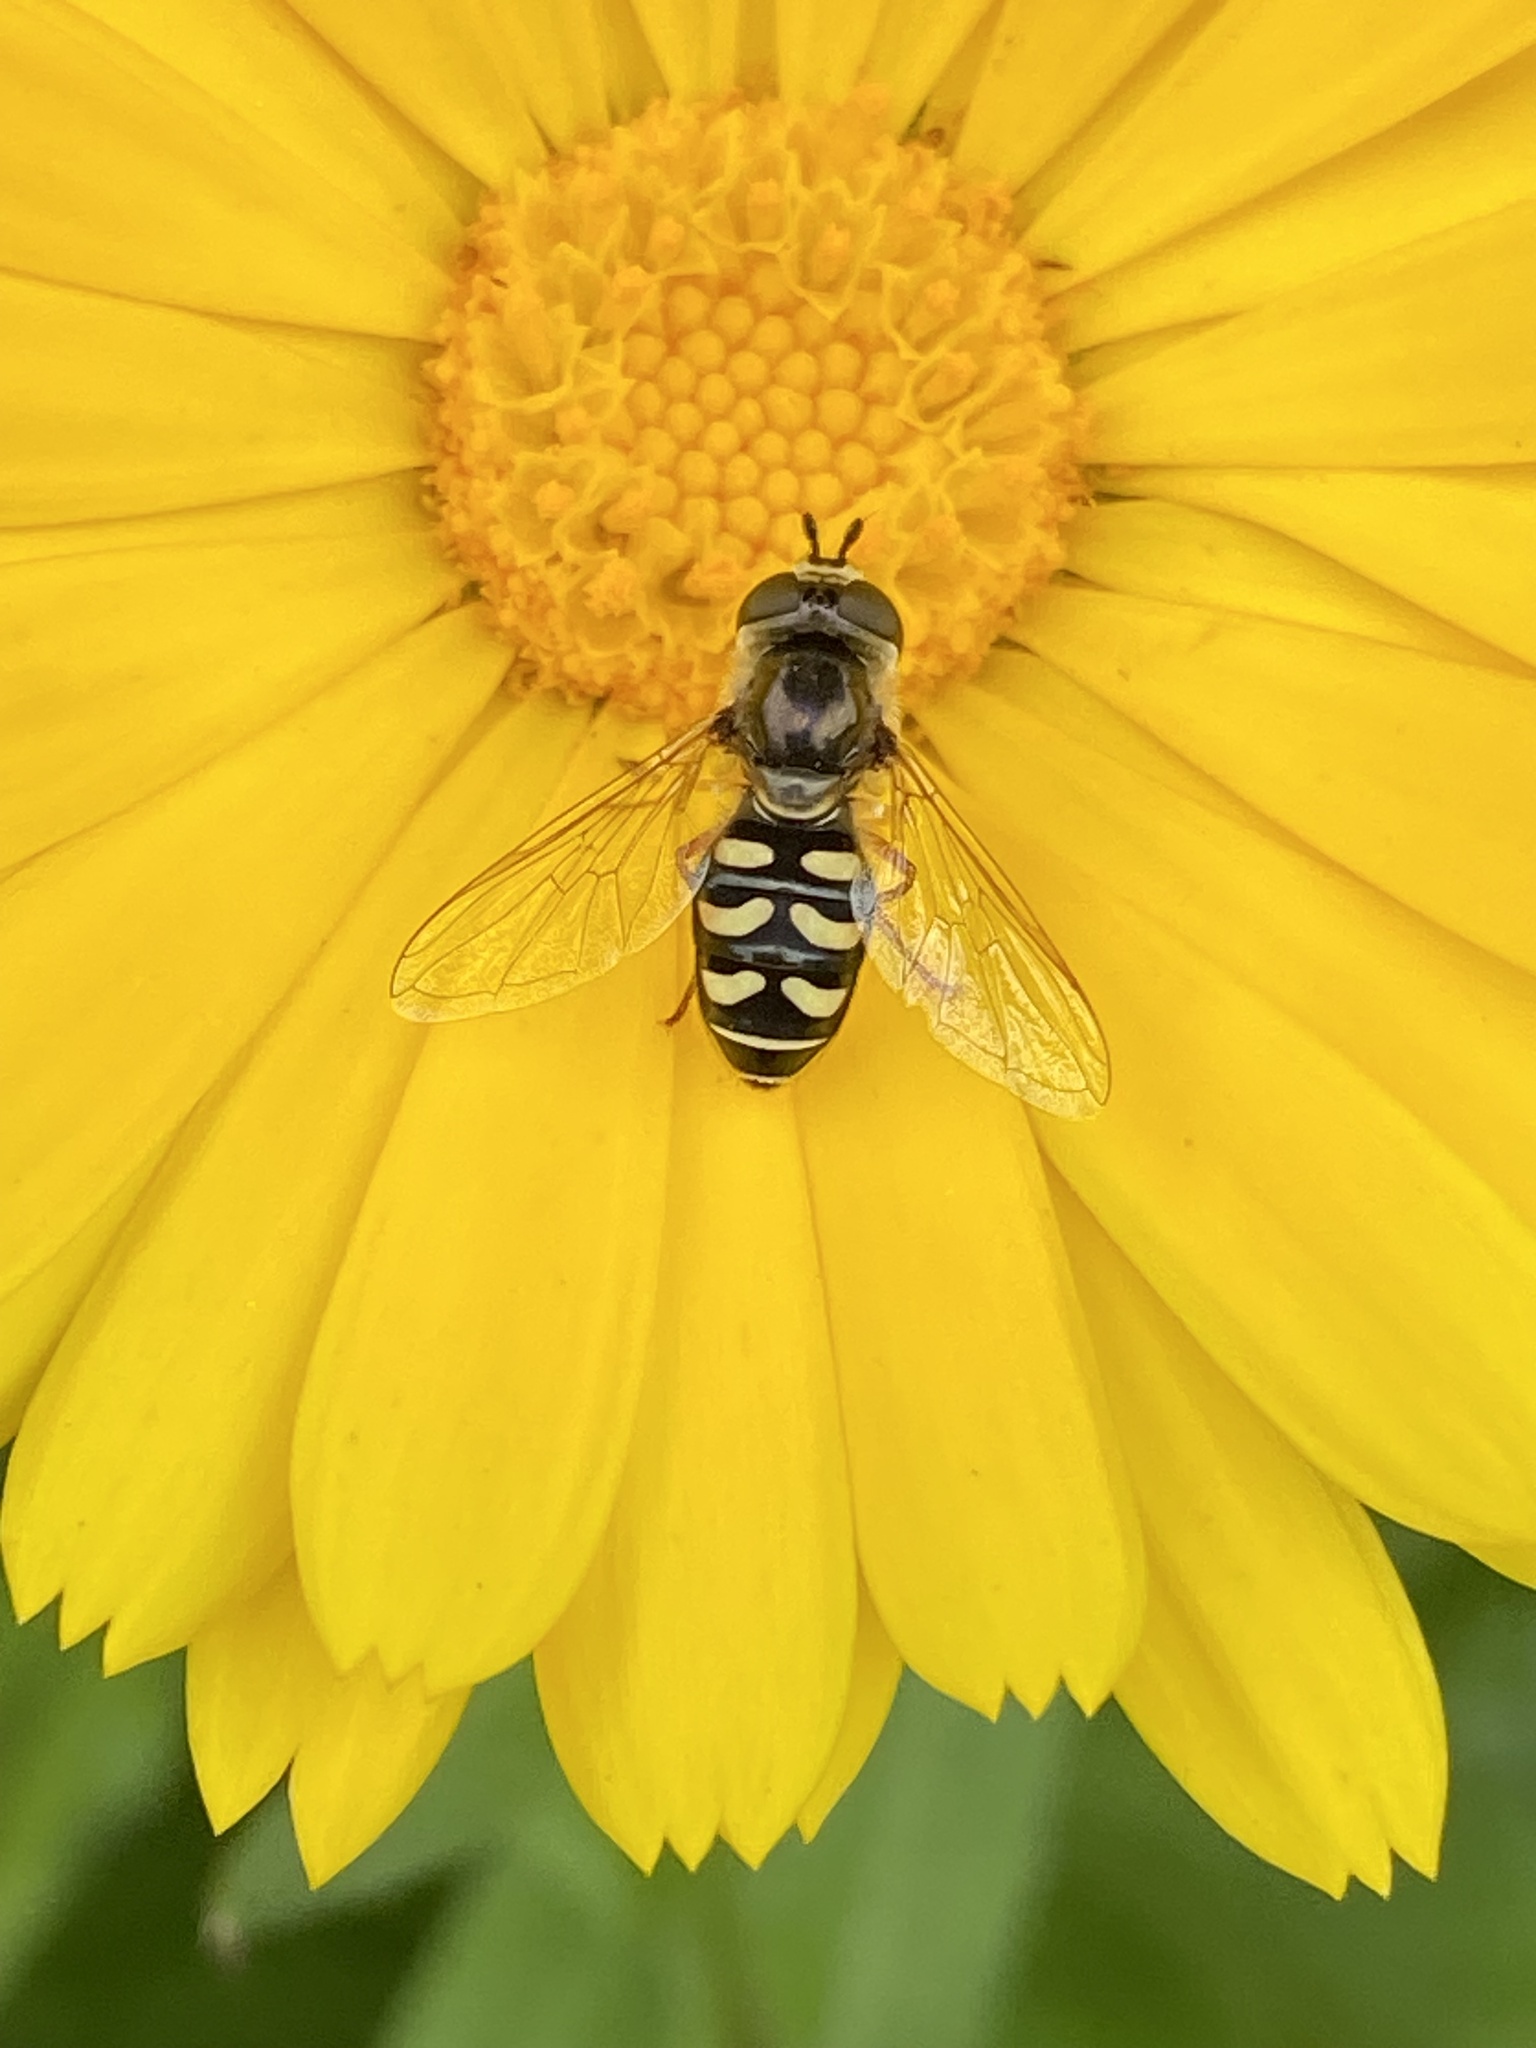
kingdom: Animalia
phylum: Arthropoda
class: Insecta
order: Diptera
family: Syrphidae
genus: Eupeodes
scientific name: Eupeodes volucris
